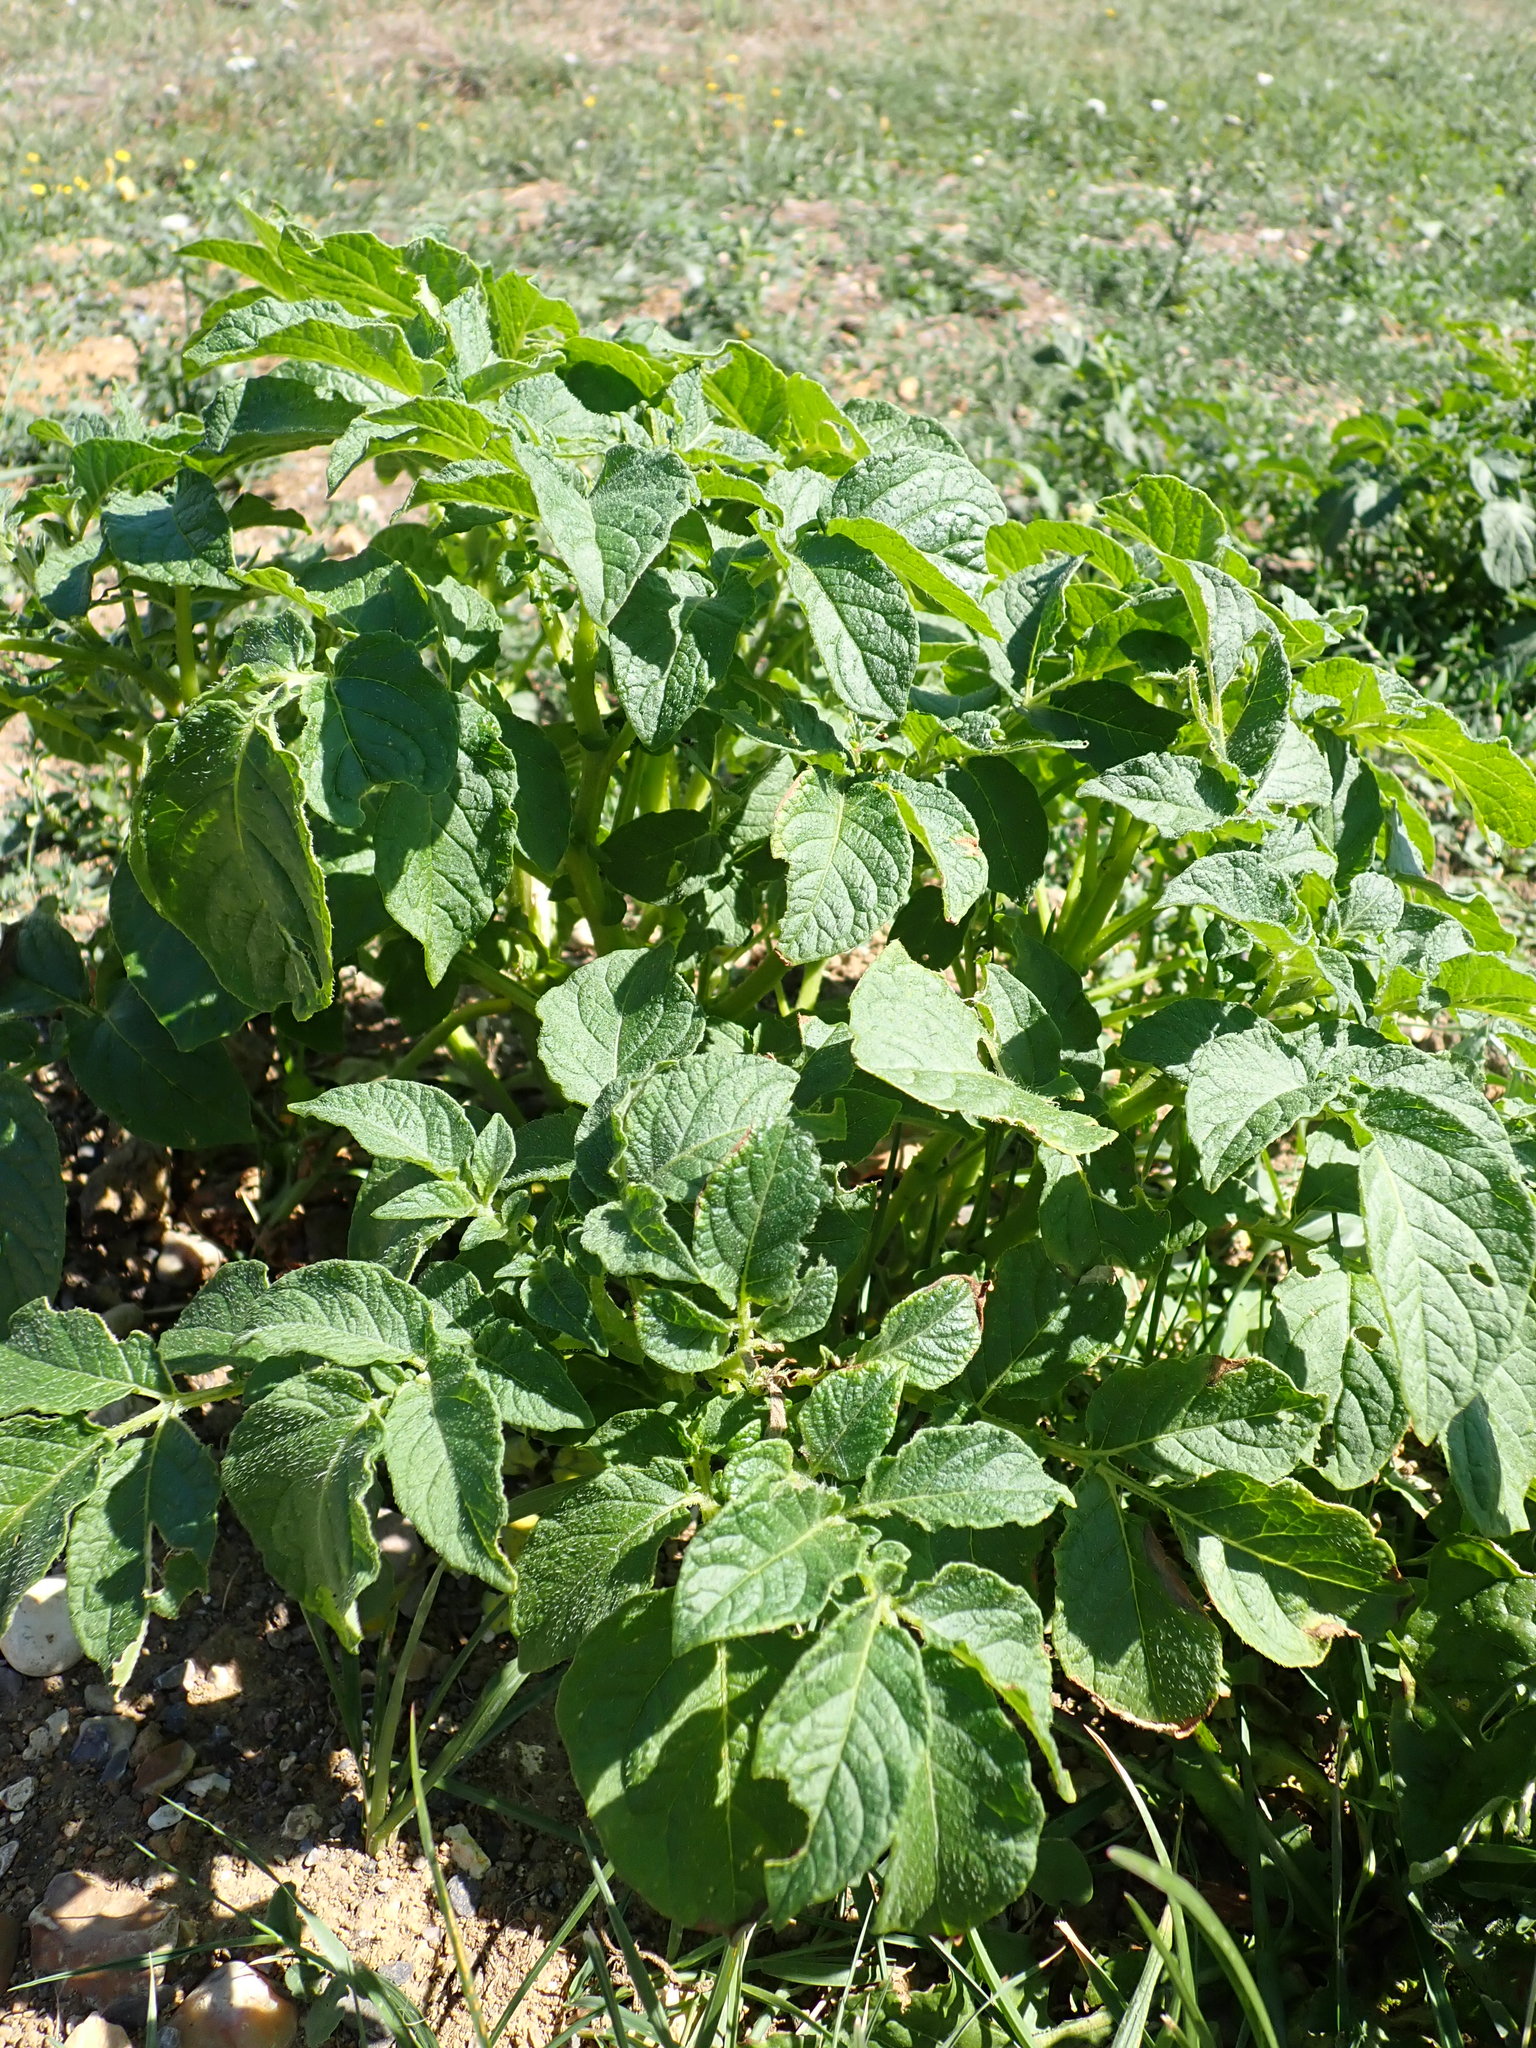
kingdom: Plantae
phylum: Tracheophyta
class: Magnoliopsida
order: Solanales
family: Solanaceae
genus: Solanum
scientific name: Solanum tuberosum
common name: Potato
